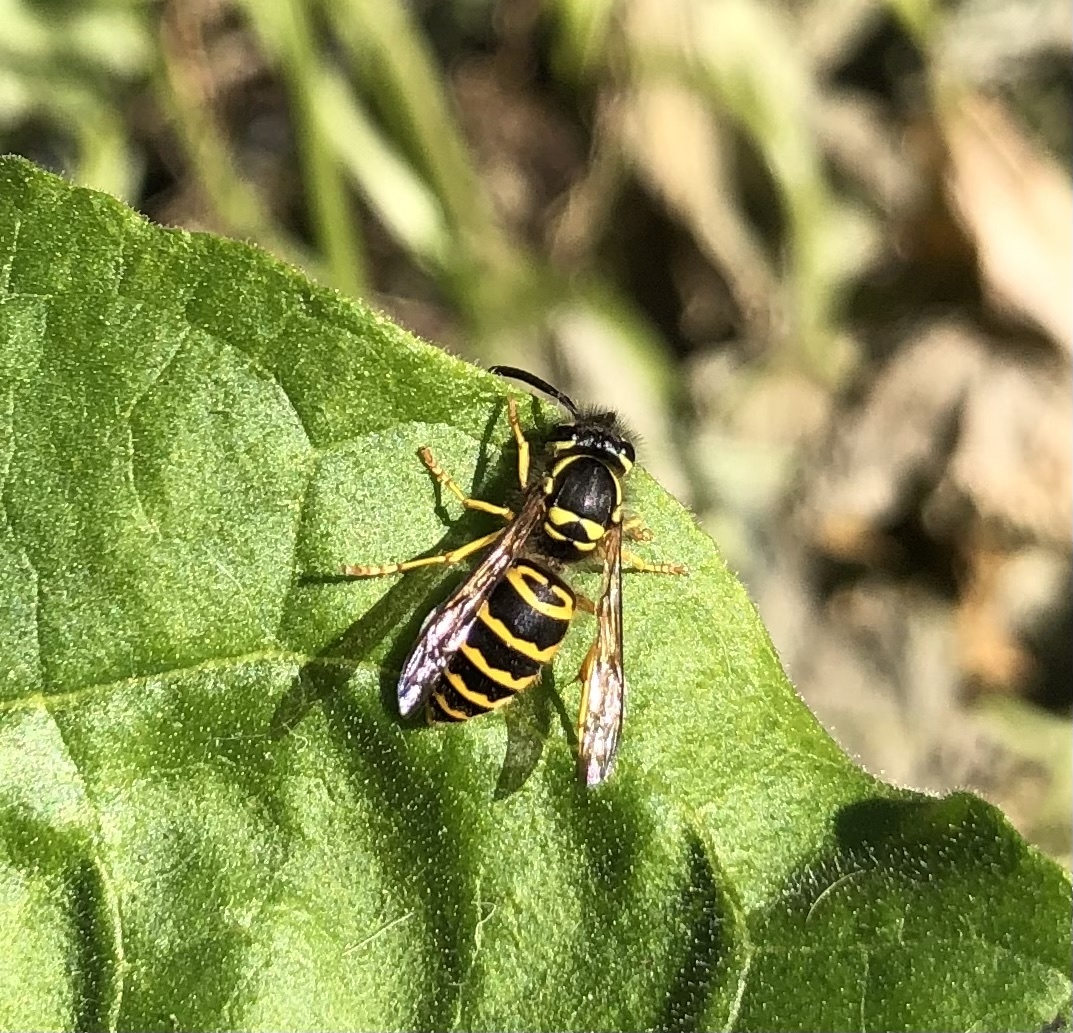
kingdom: Animalia
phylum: Arthropoda
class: Insecta
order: Hymenoptera
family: Vespidae
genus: Vespula
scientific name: Vespula maculifrons
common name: Eastern yellowjacket
